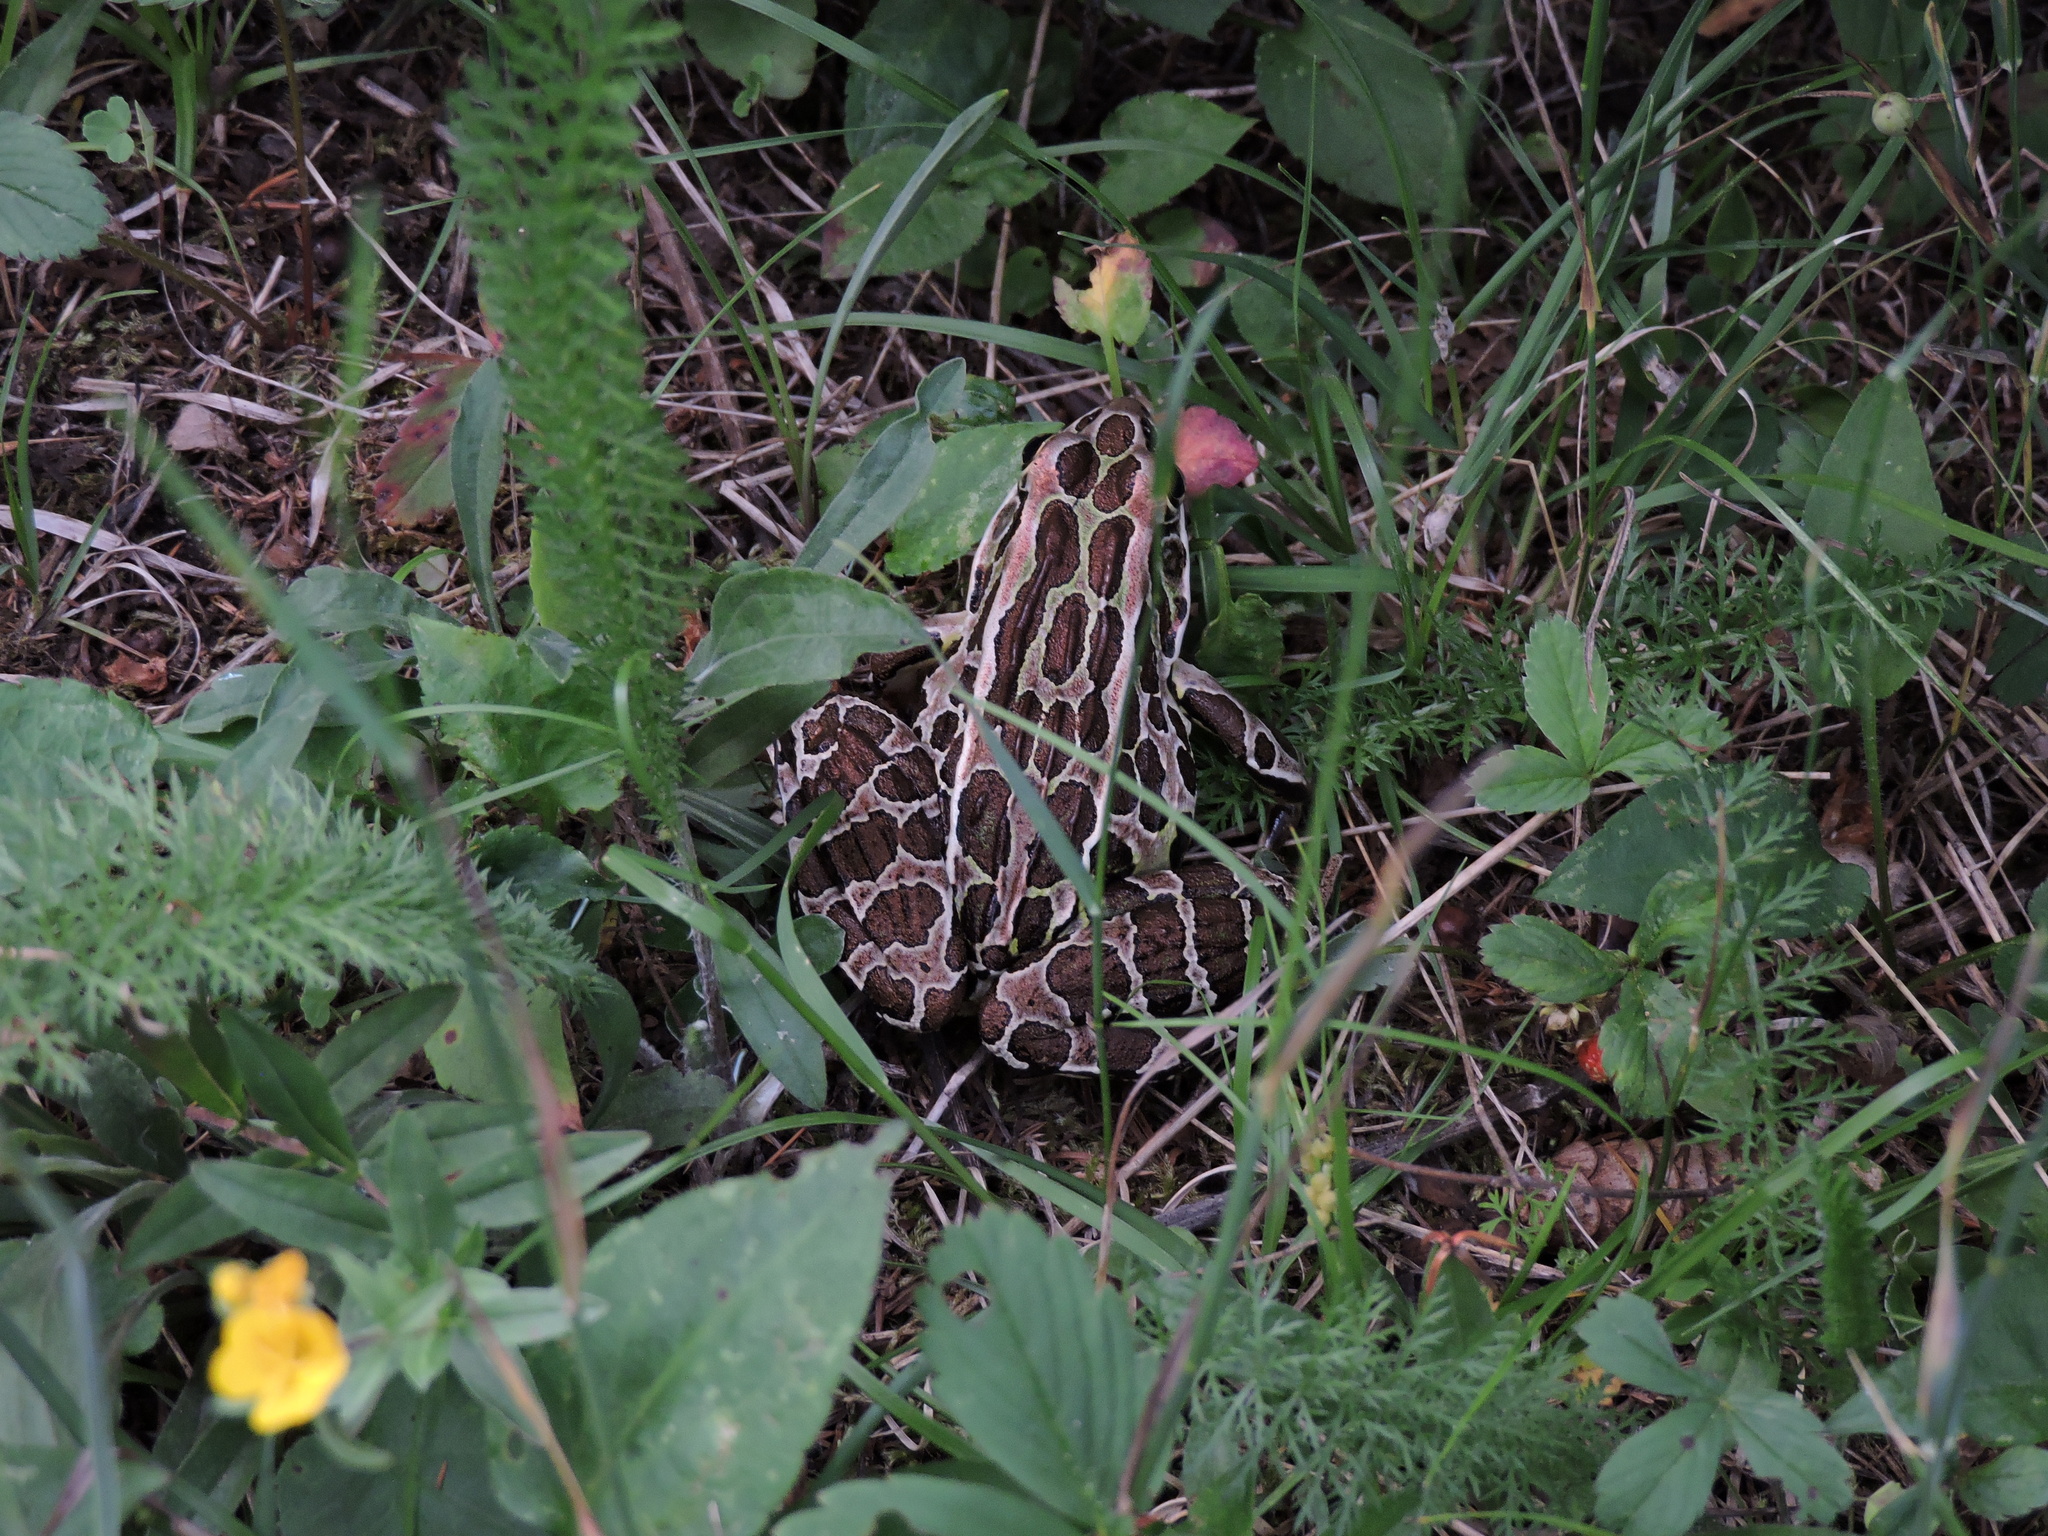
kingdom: Animalia
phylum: Chordata
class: Amphibia
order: Anura
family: Ranidae
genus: Lithobates
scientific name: Lithobates pipiens
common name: Northern leopard frog
